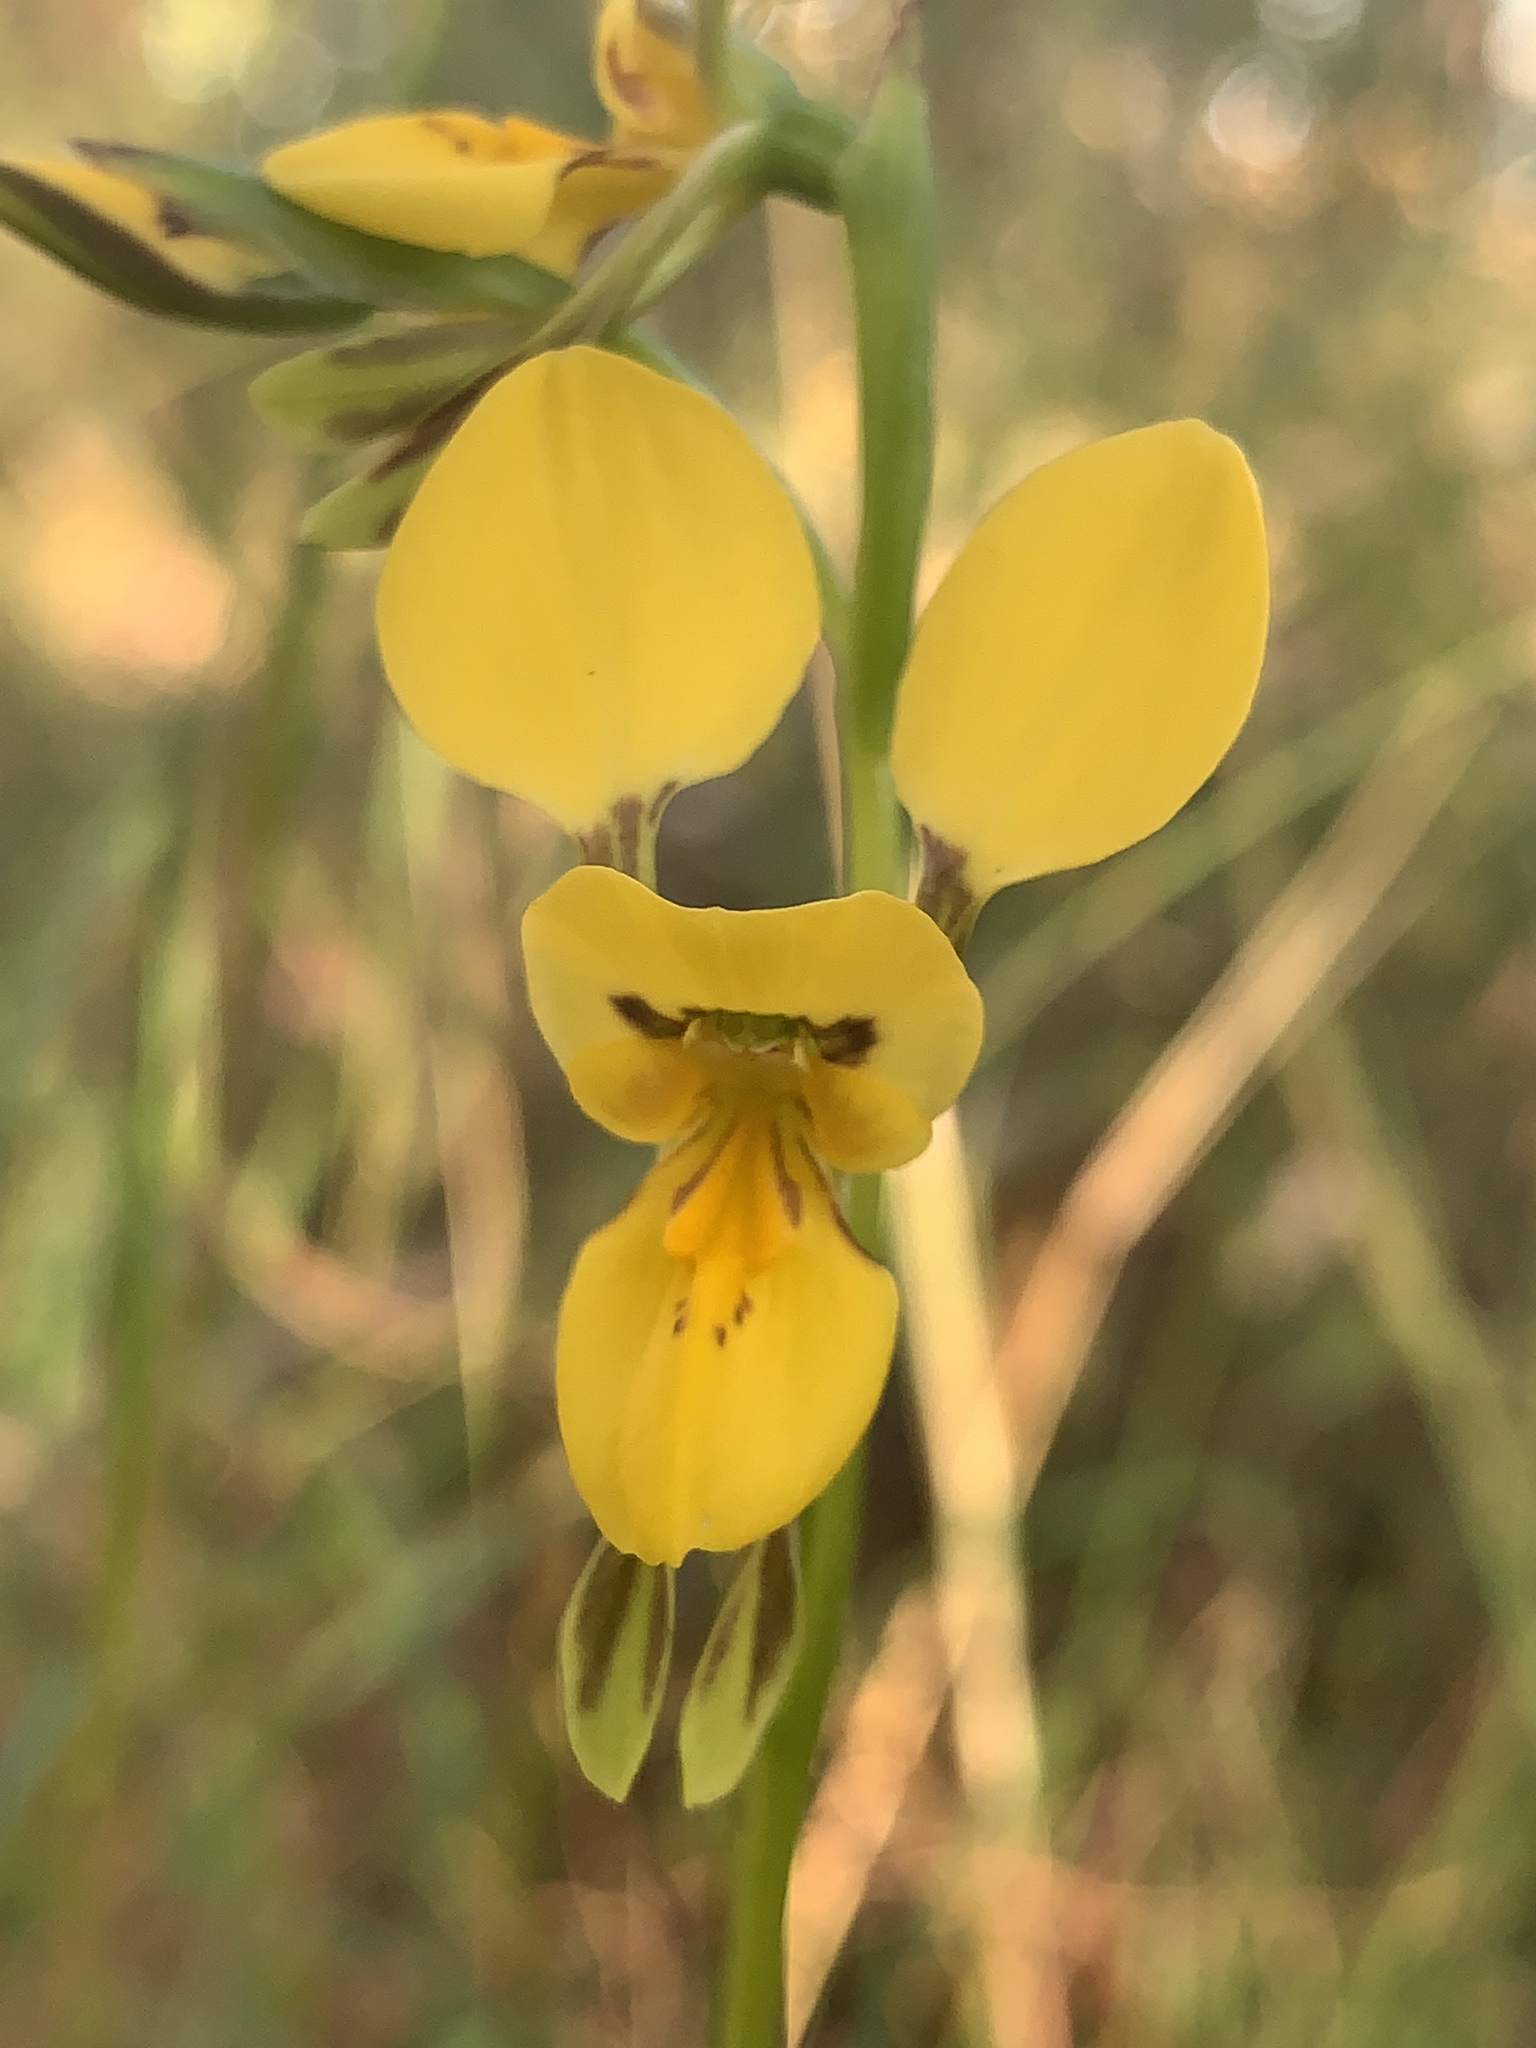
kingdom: Plantae
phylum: Tracheophyta
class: Liliopsida
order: Asparagales
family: Orchidaceae
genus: Diuris
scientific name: Diuris aurea
